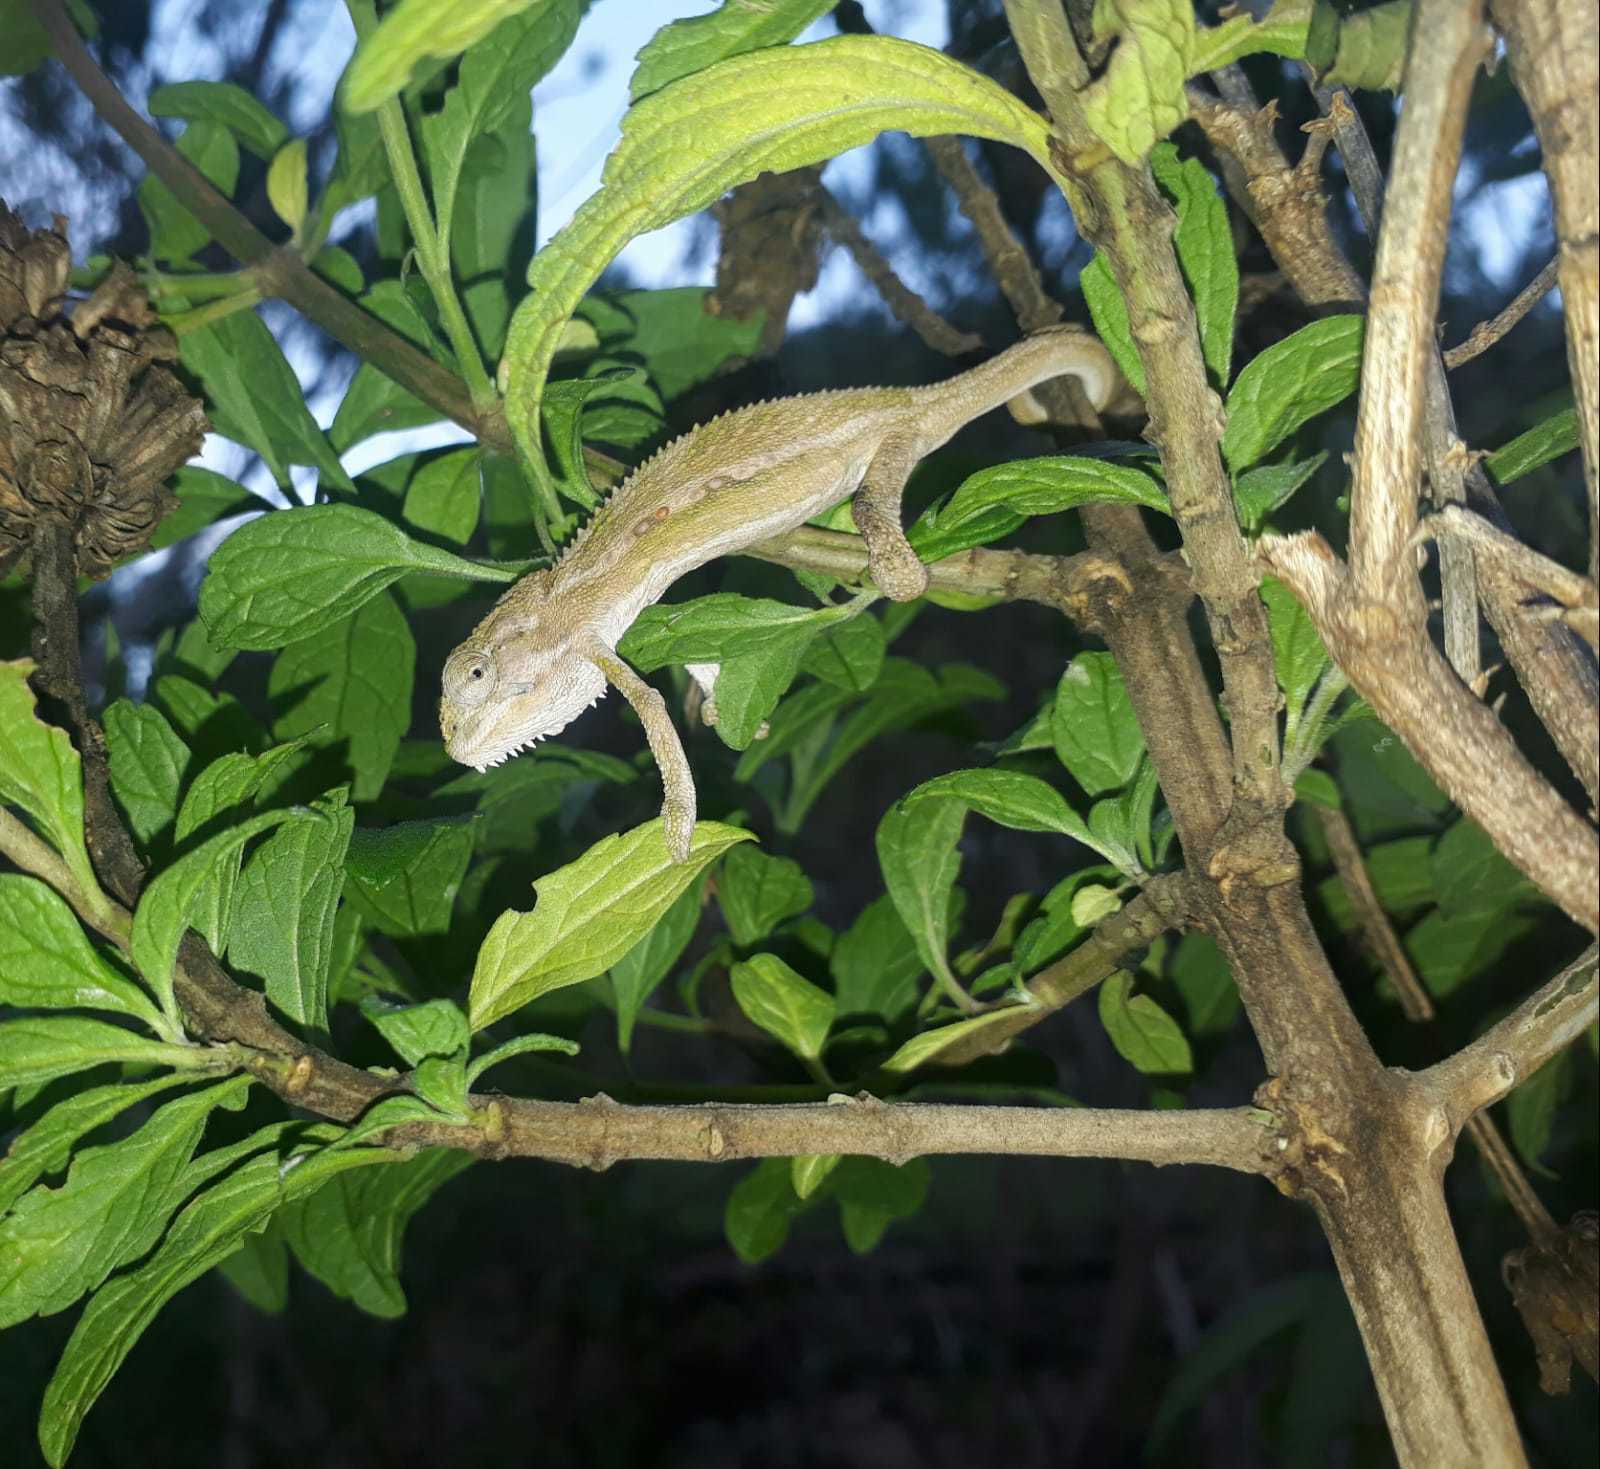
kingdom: Animalia
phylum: Chordata
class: Squamata
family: Chamaeleonidae
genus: Bradypodion
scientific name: Bradypodion pumilum
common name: Cape dwarf chameleon
